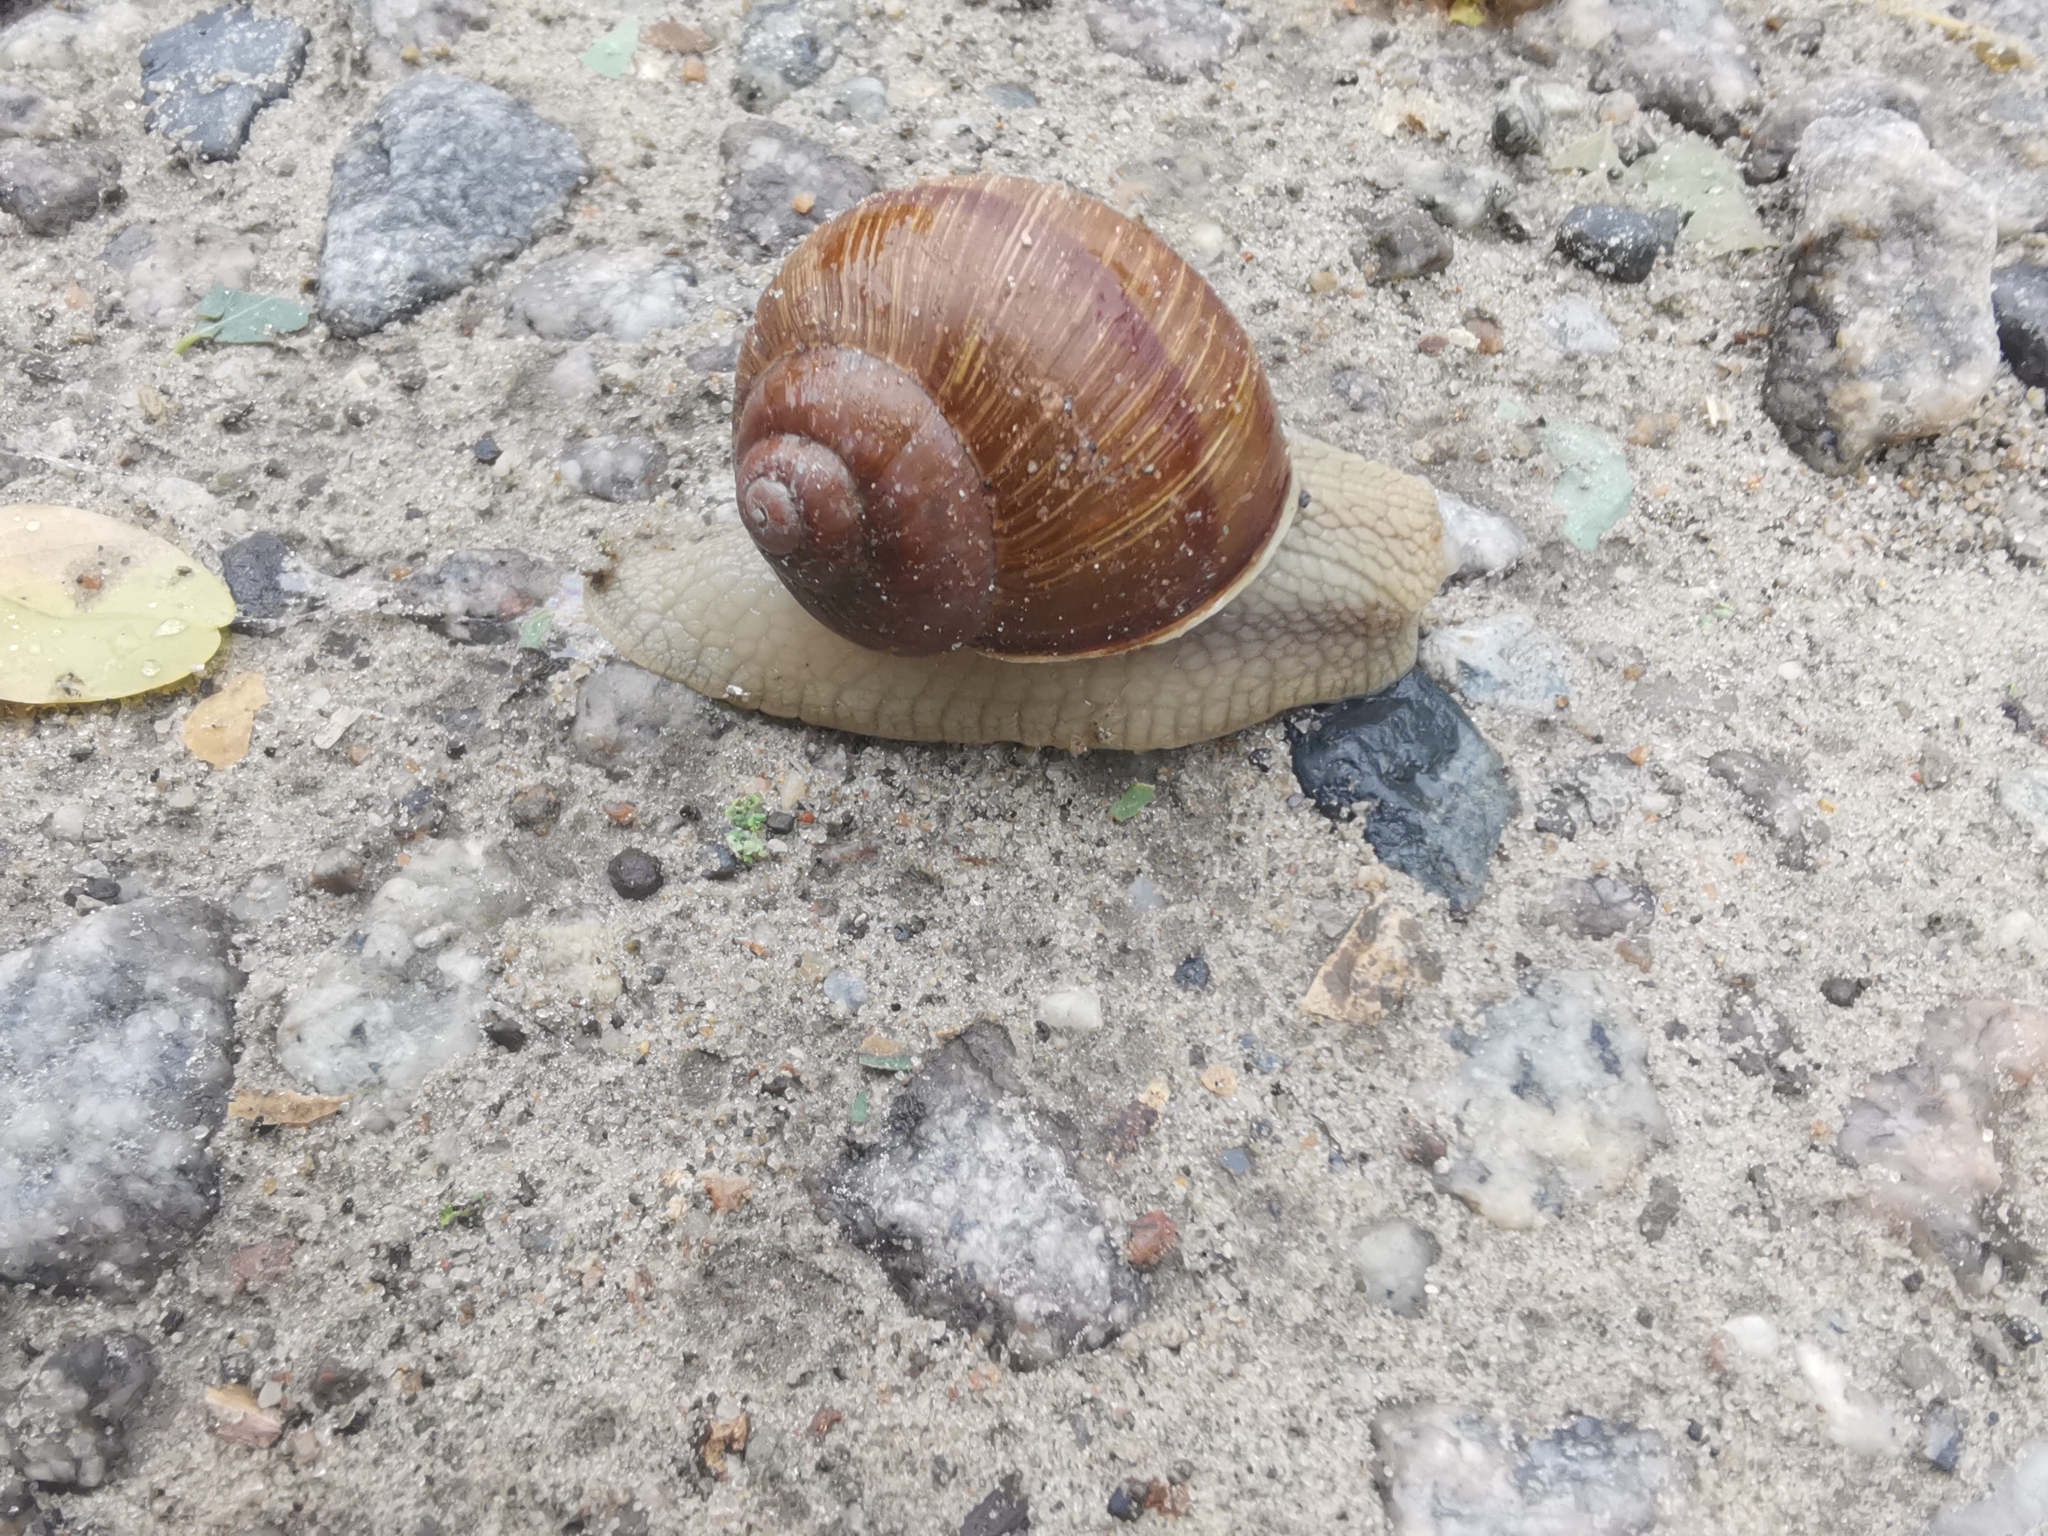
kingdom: Animalia
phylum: Mollusca
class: Gastropoda
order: Stylommatophora
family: Helicidae
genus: Helix
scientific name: Helix pomatia
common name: Roman snail
